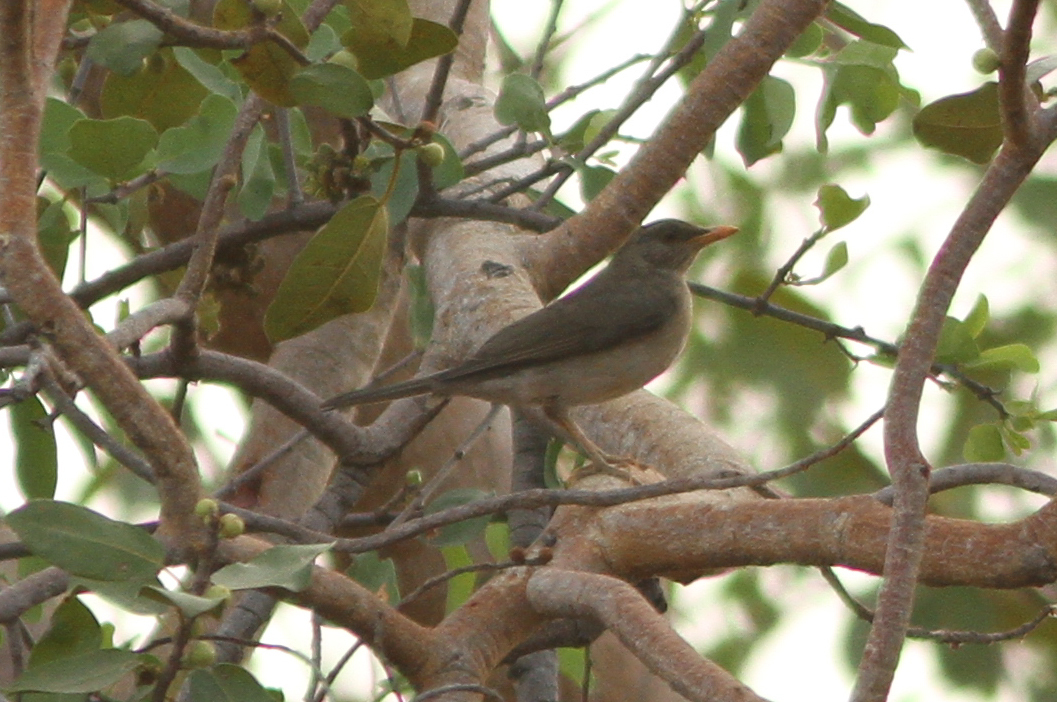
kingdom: Animalia
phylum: Chordata
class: Aves
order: Passeriformes
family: Turdidae
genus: Turdus
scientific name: Turdus pelios
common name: African thrush
